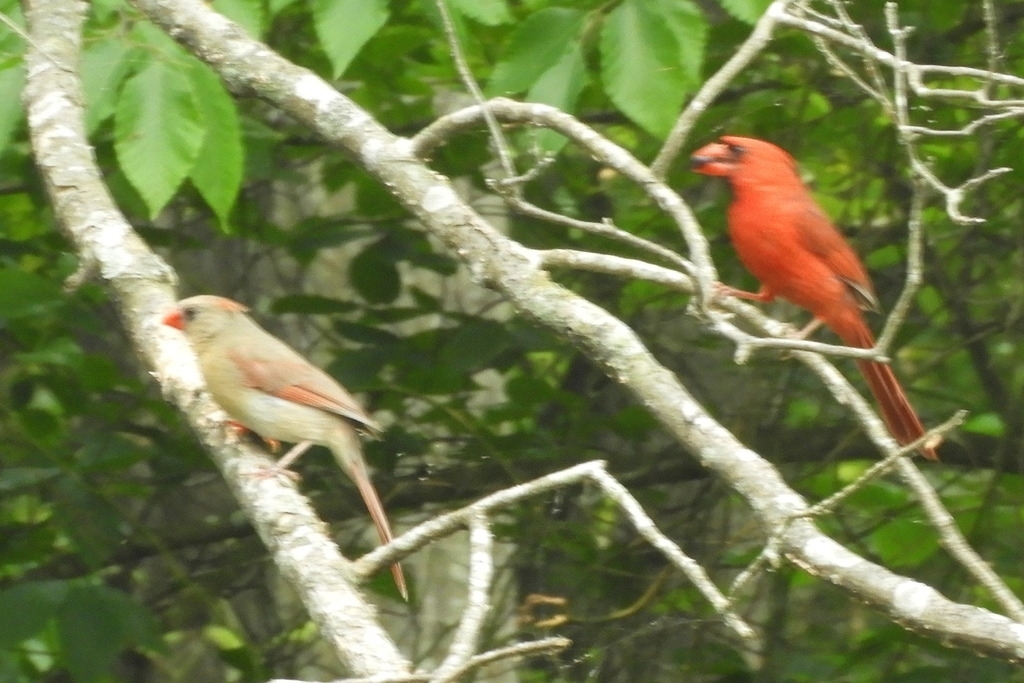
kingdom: Animalia
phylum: Chordata
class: Aves
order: Passeriformes
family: Cardinalidae
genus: Cardinalis
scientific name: Cardinalis cardinalis
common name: Northern cardinal
